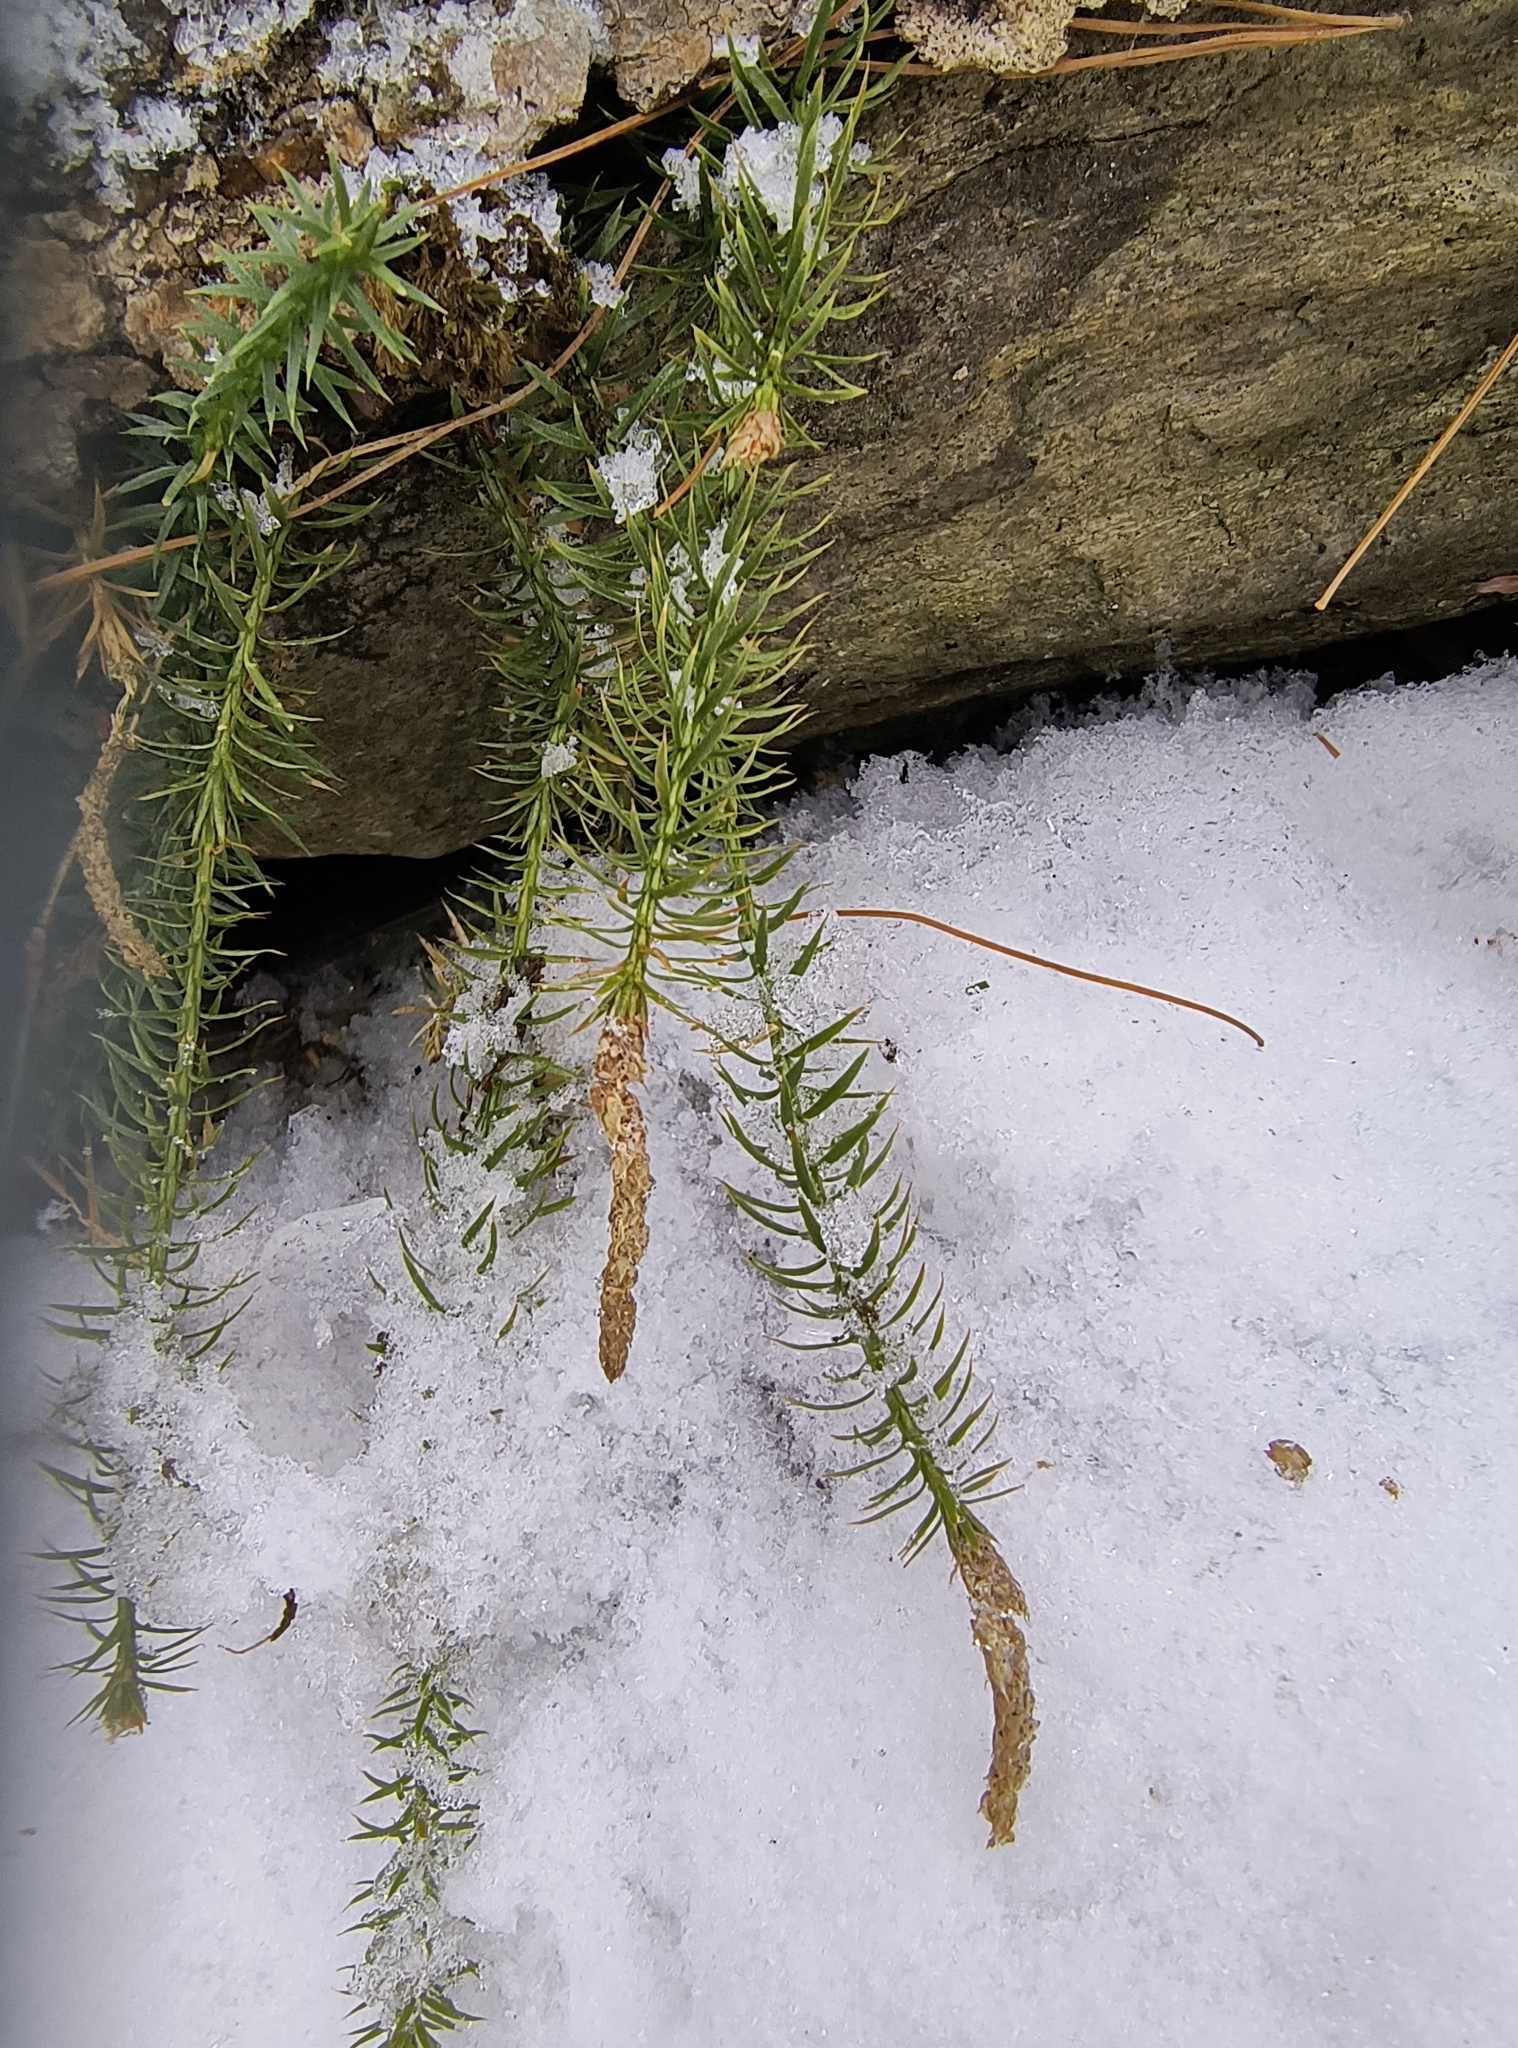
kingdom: Plantae
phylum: Tracheophyta
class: Lycopodiopsida
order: Lycopodiales
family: Lycopodiaceae
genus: Spinulum
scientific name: Spinulum annotinum
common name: Interrupted club-moss
